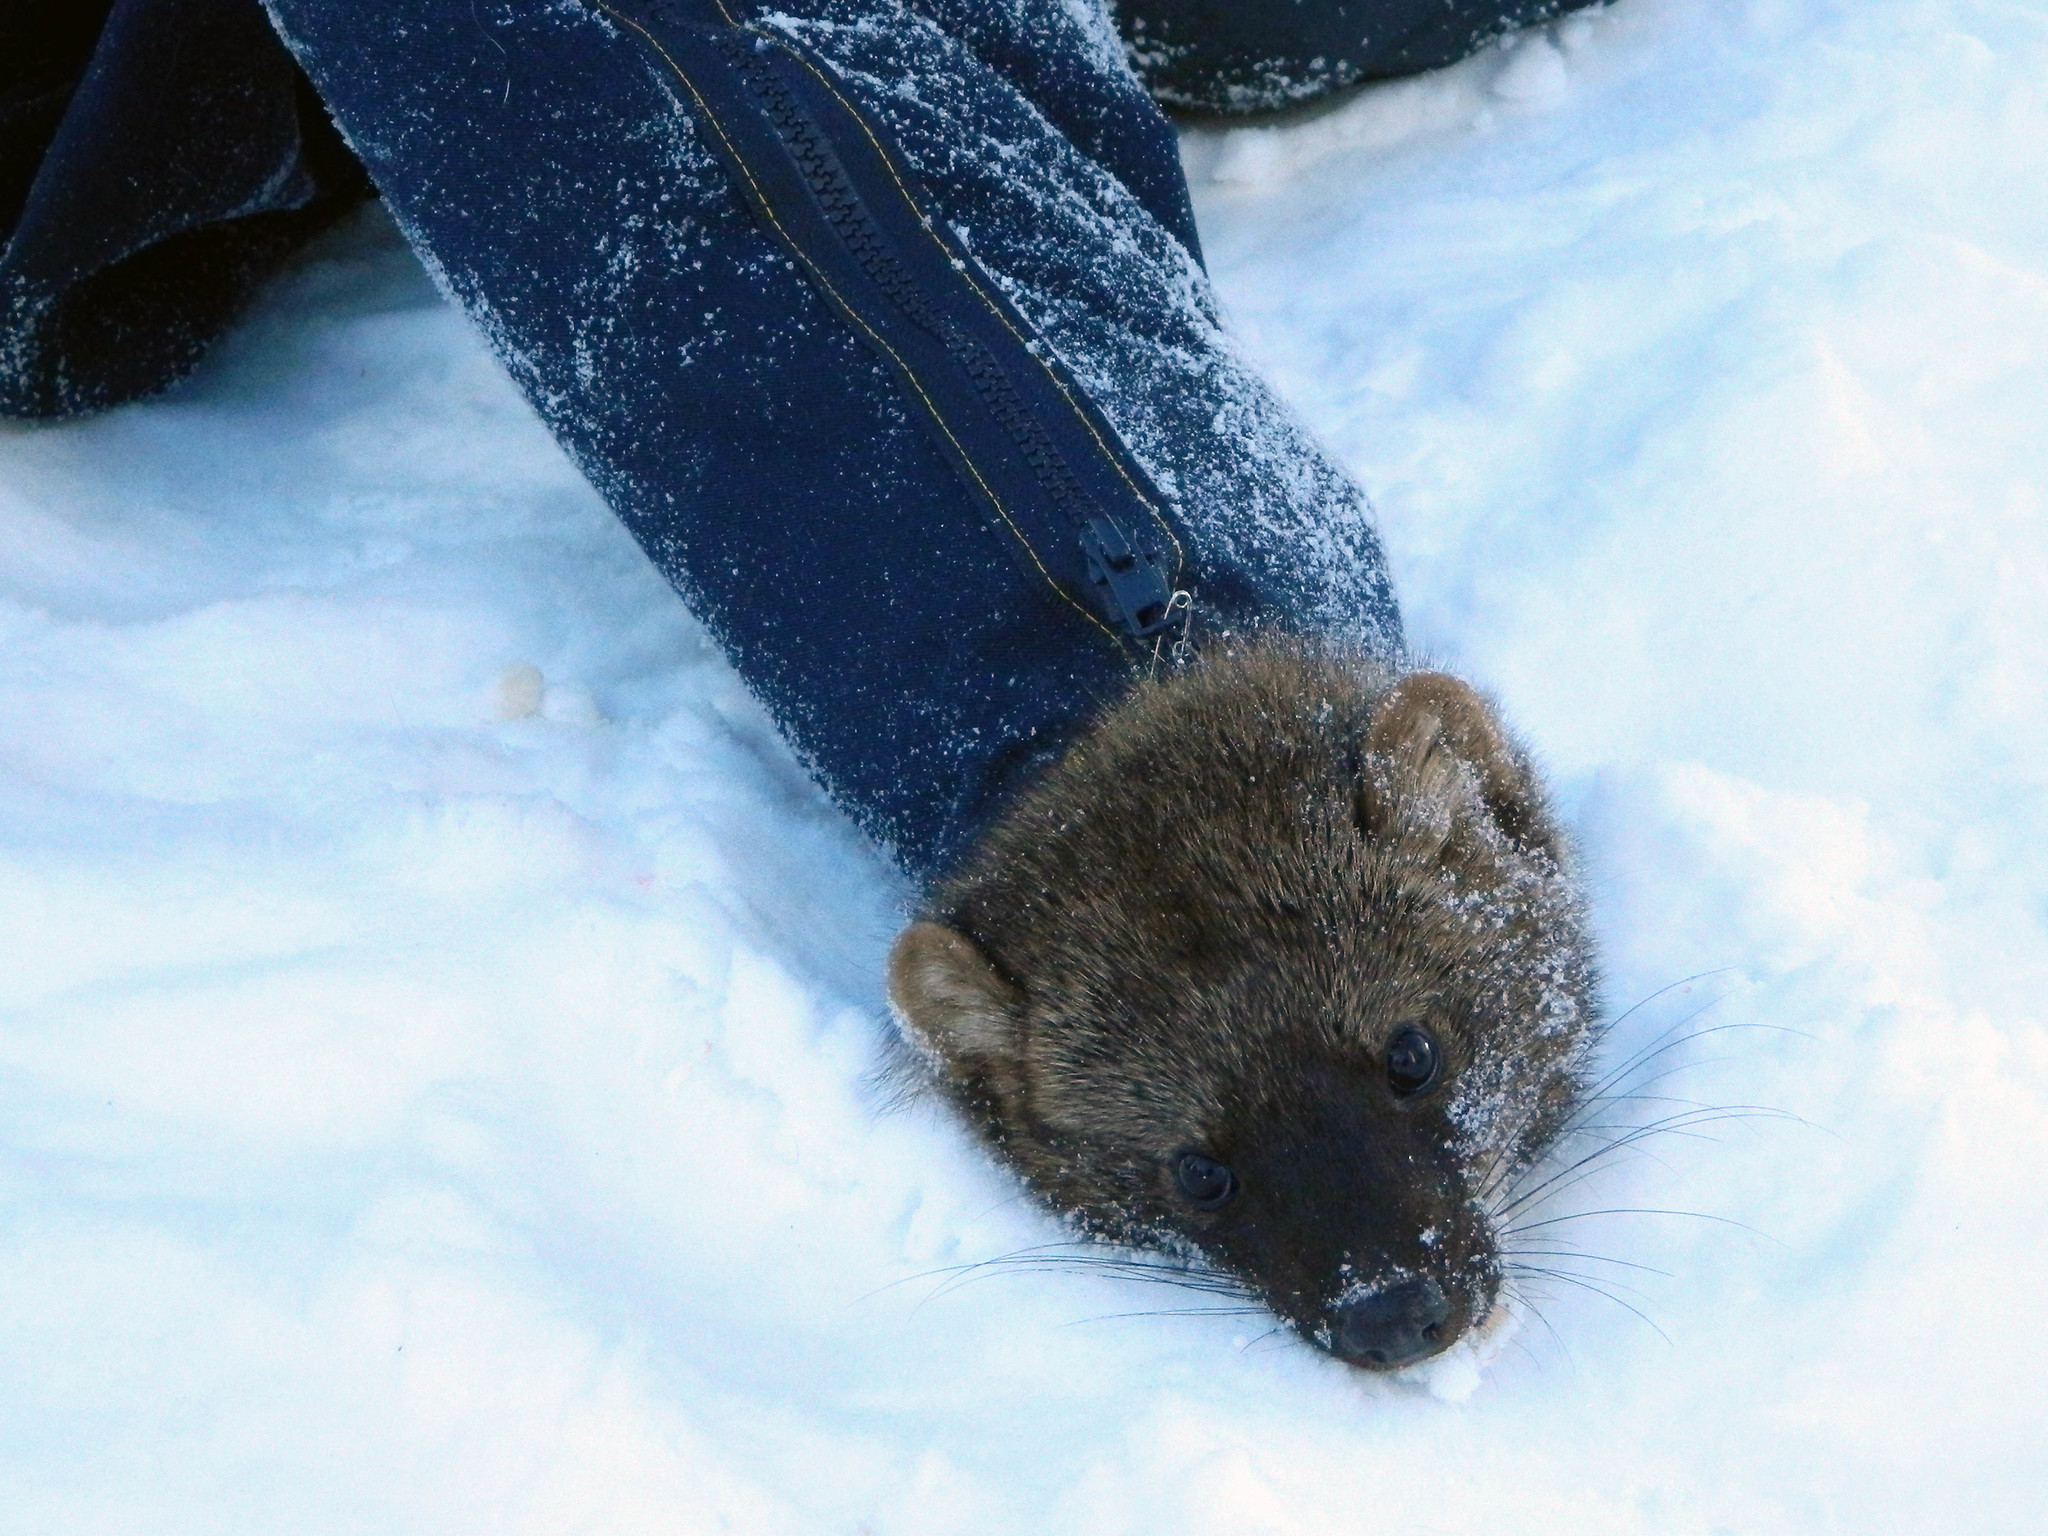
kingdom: Animalia
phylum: Chordata
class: Mammalia
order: Carnivora
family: Mustelidae
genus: Pekania
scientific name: Pekania pennanti
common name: Fisher
